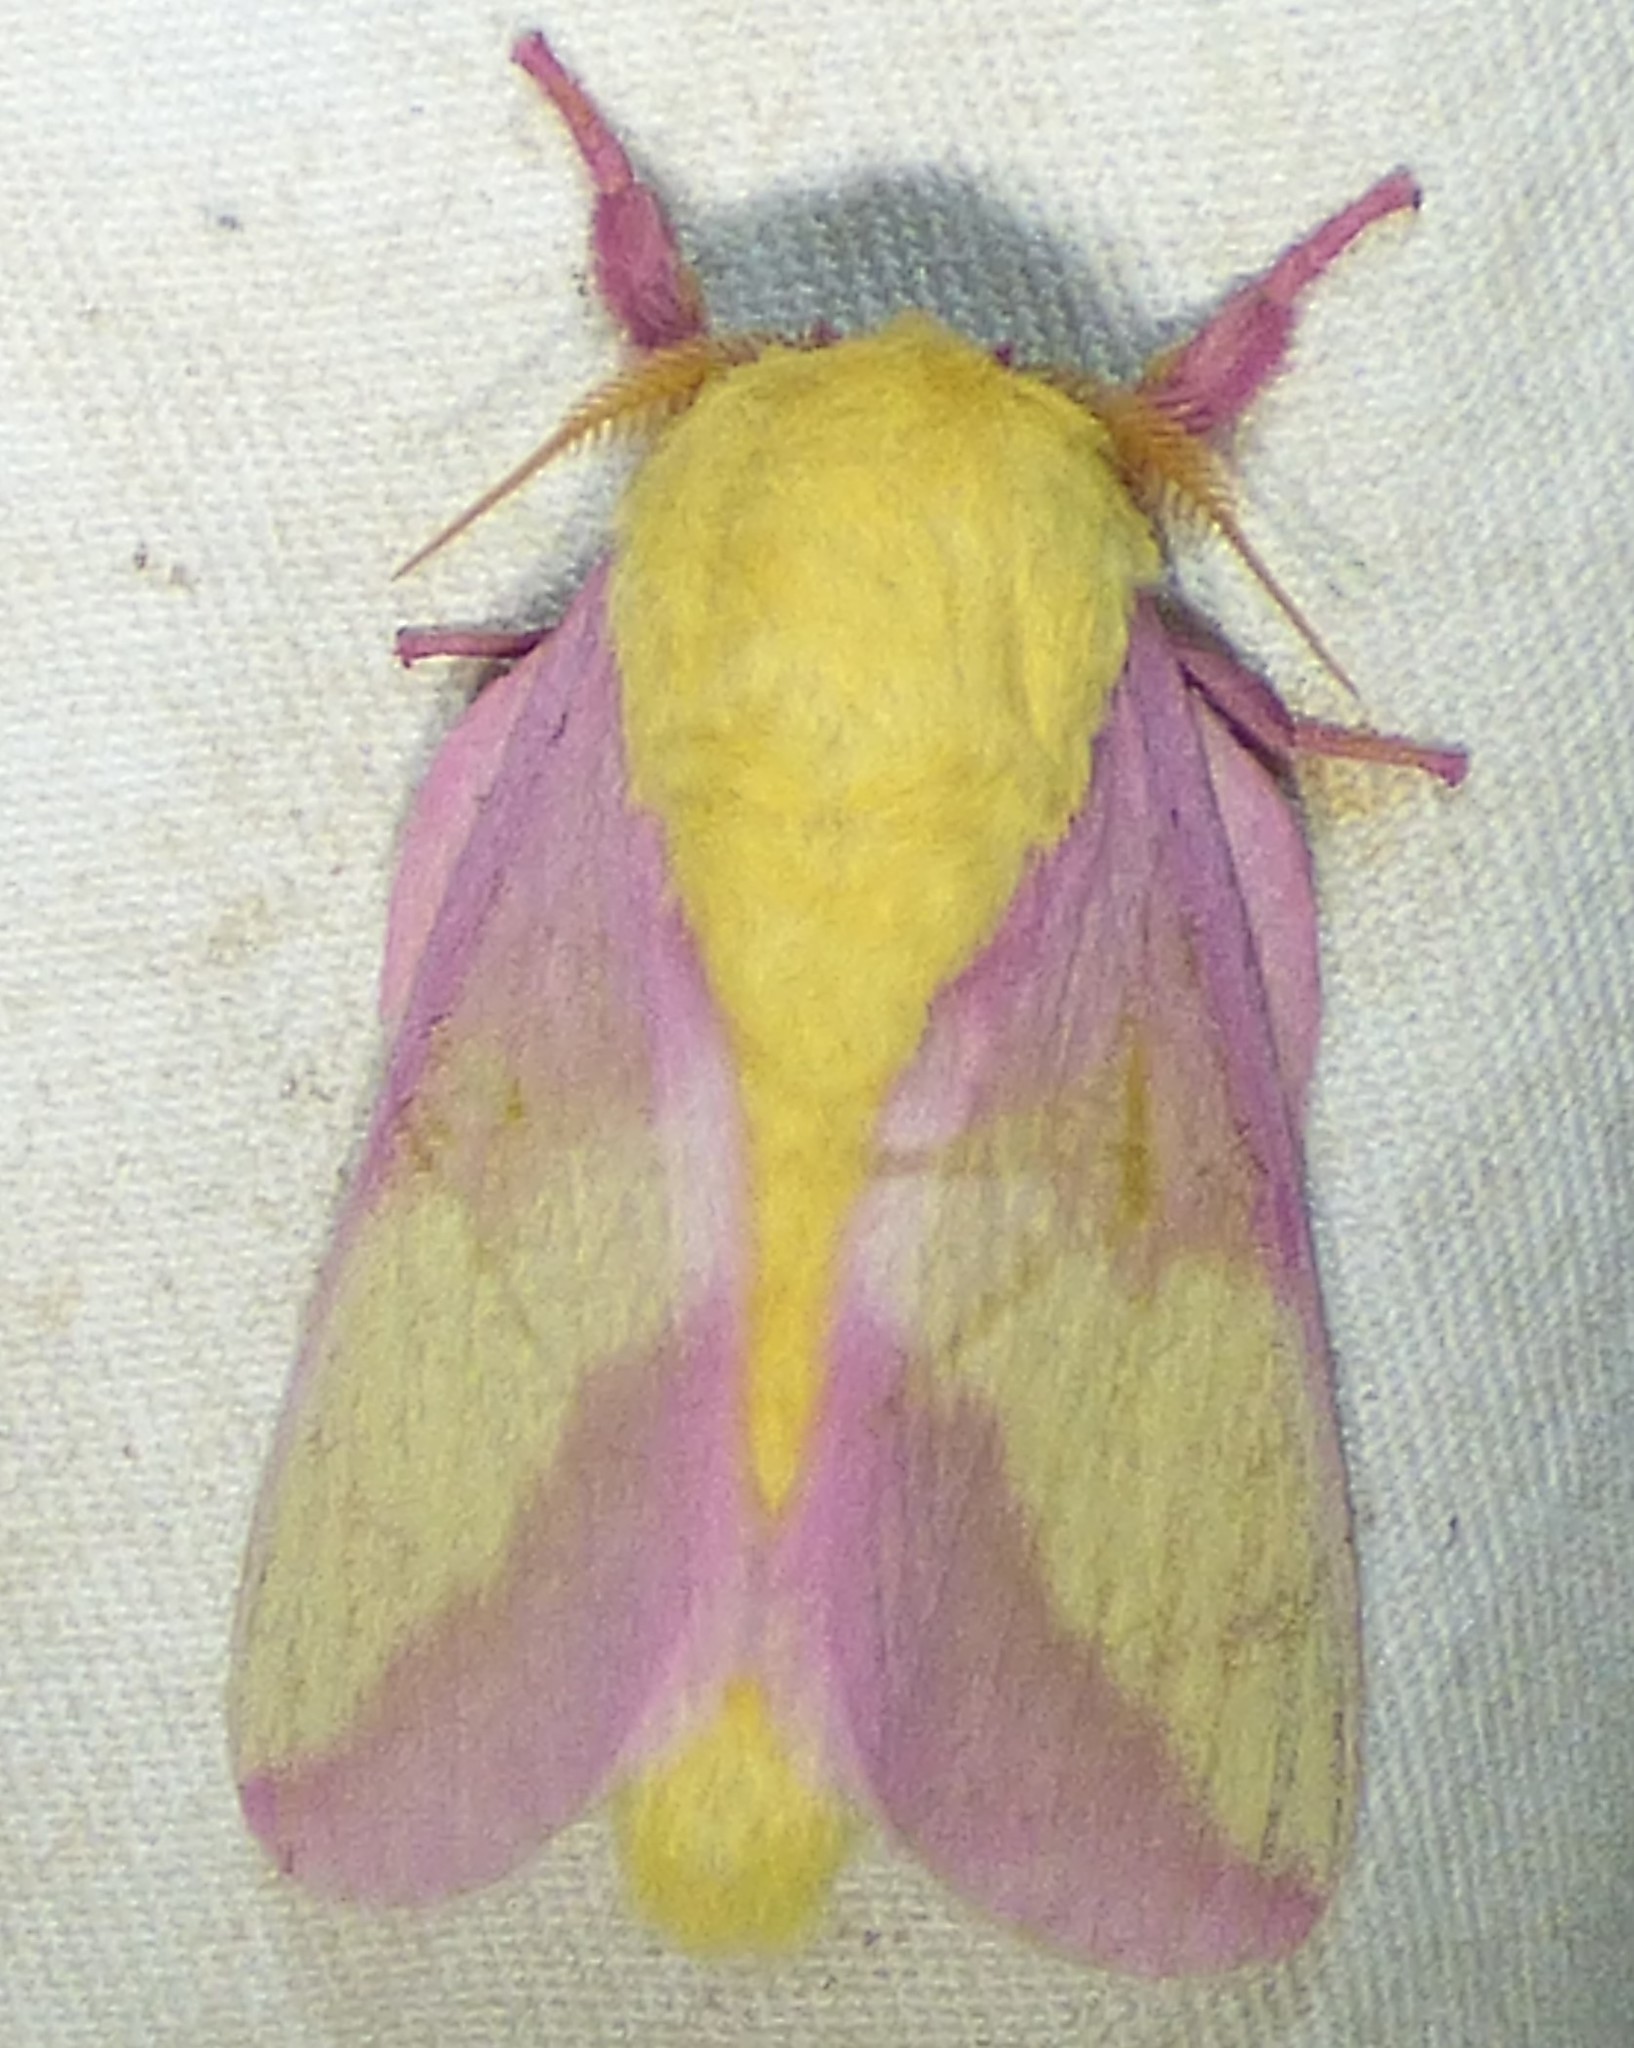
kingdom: Animalia
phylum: Arthropoda
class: Insecta
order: Lepidoptera
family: Saturniidae
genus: Dryocampa
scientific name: Dryocampa rubicunda
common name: Rosy maple moth
